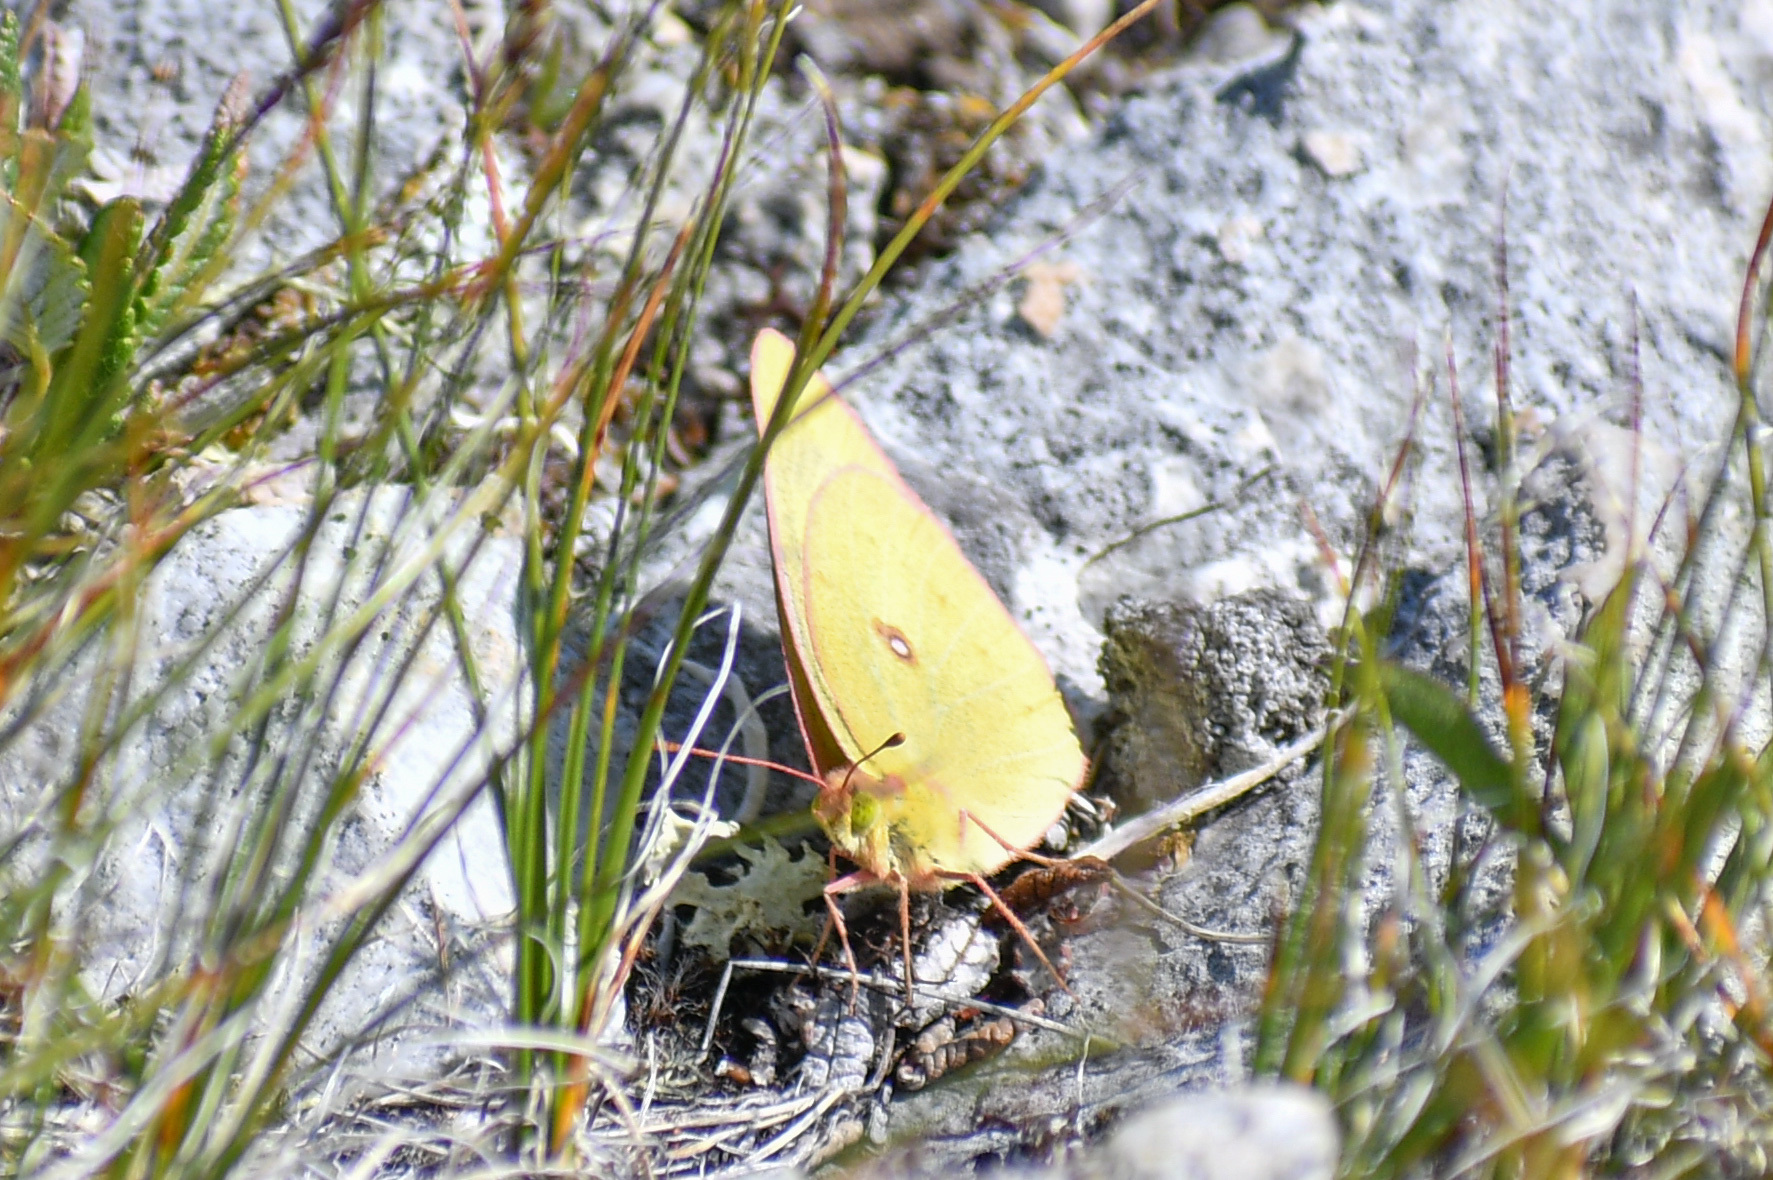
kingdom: Animalia
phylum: Arthropoda
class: Insecta
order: Lepidoptera
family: Pieridae
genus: Colias
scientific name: Colias philodice
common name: Clouded sulphur
